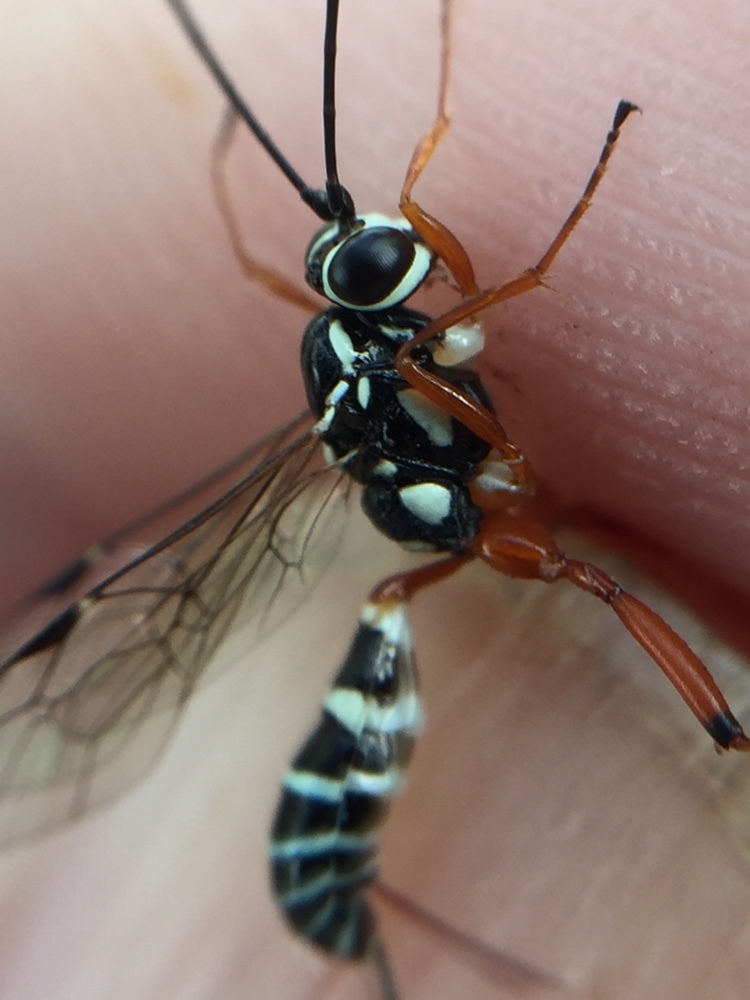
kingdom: Animalia
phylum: Arthropoda
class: Insecta
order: Hymenoptera
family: Ichneumonidae
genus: Glabridorsum
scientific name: Glabridorsum stokesii
